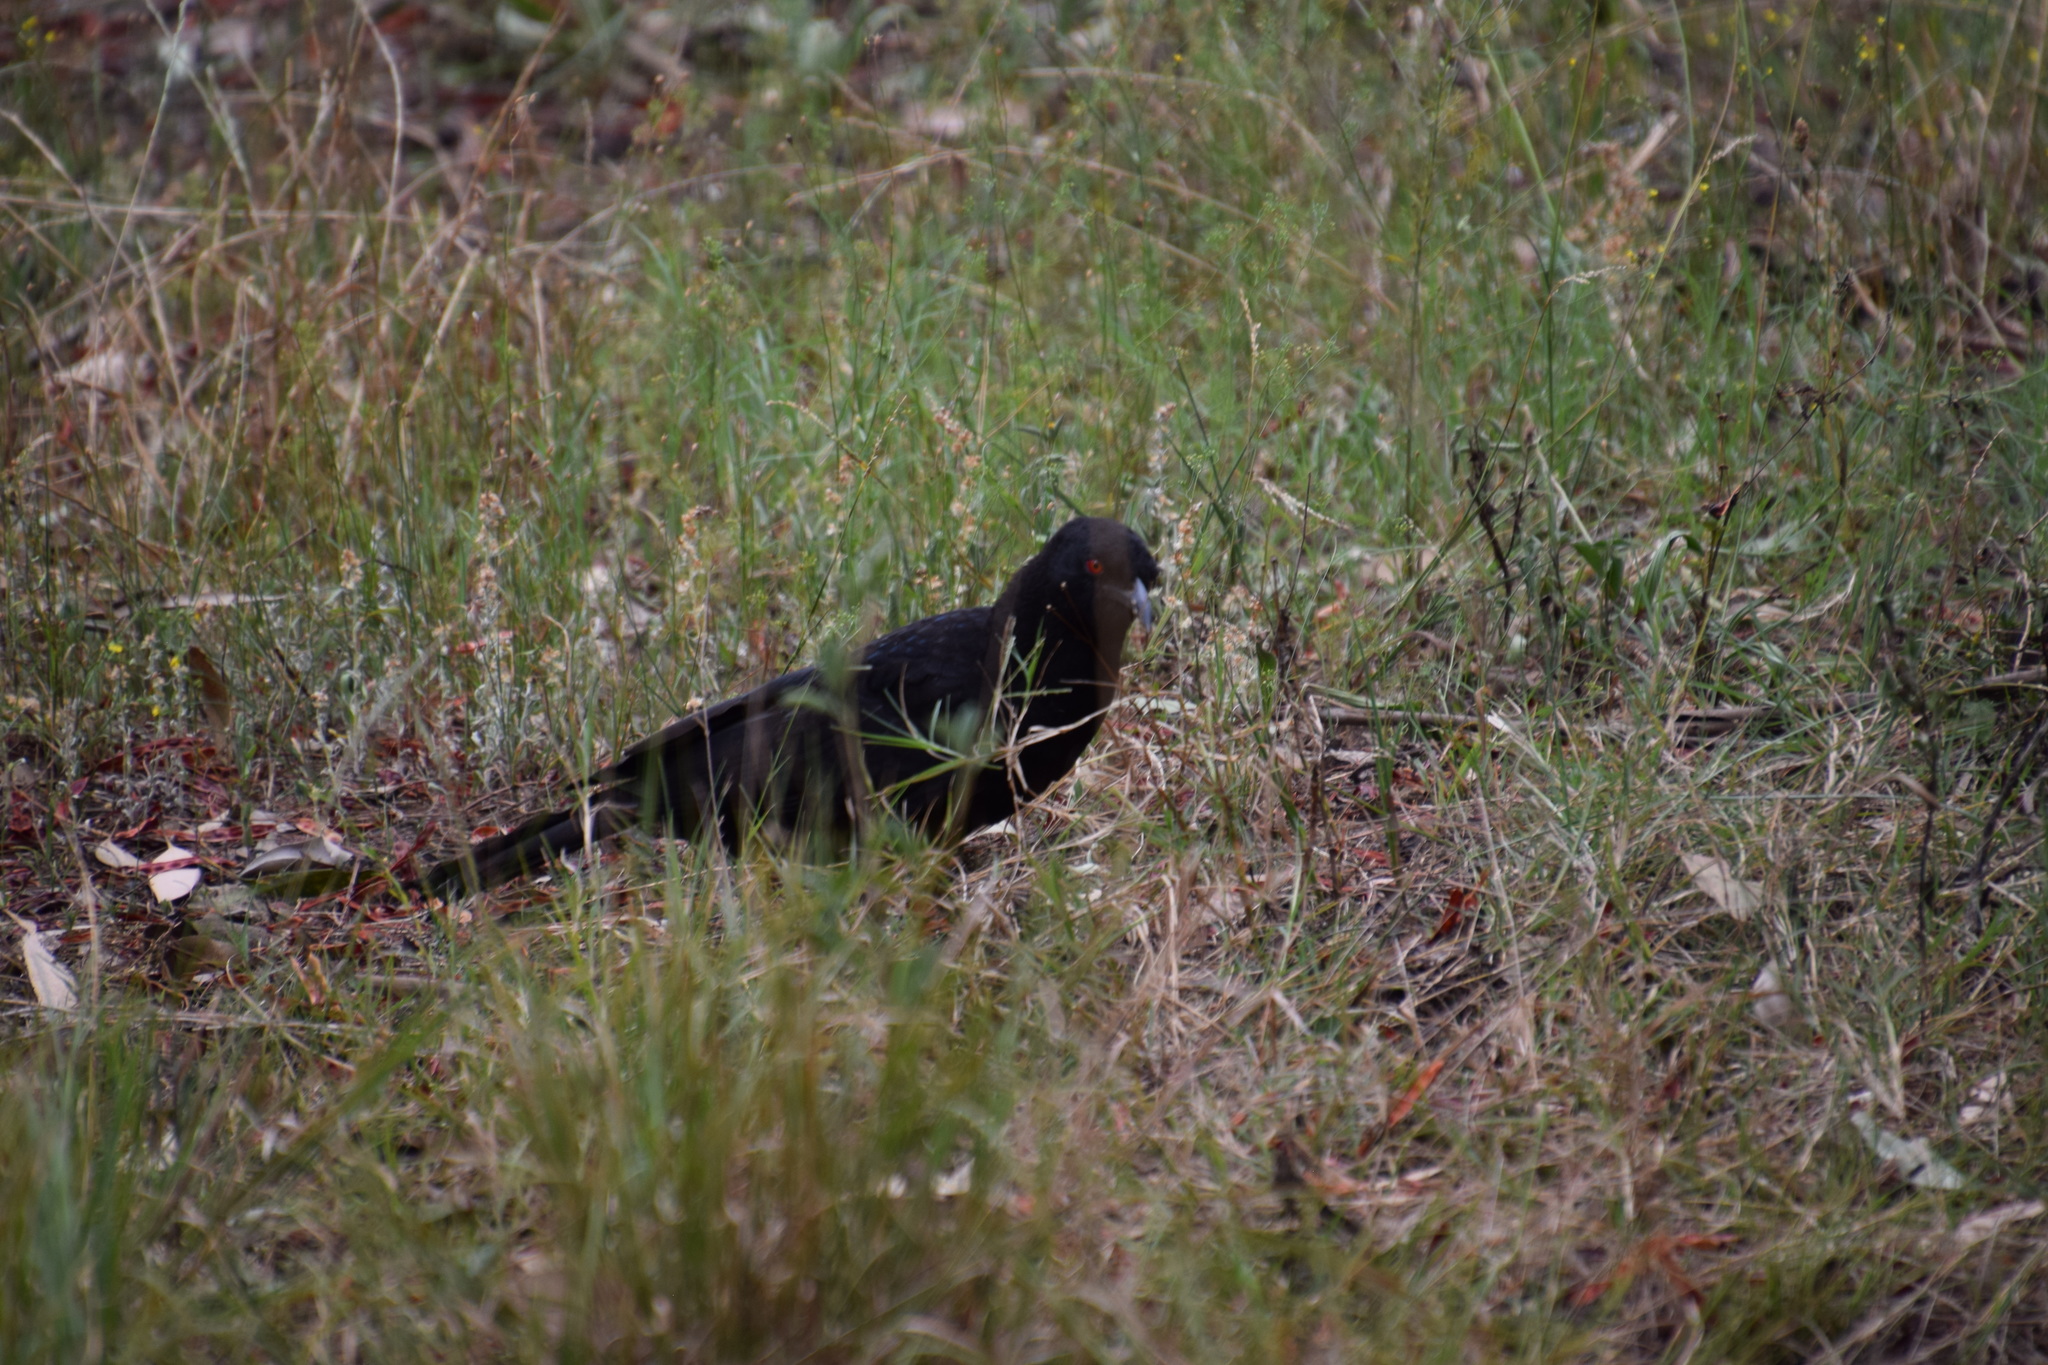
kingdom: Animalia
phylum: Chordata
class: Aves
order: Passeriformes
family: Corcoracidae
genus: Corcorax
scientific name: Corcorax melanoramphos
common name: White-winged chough
